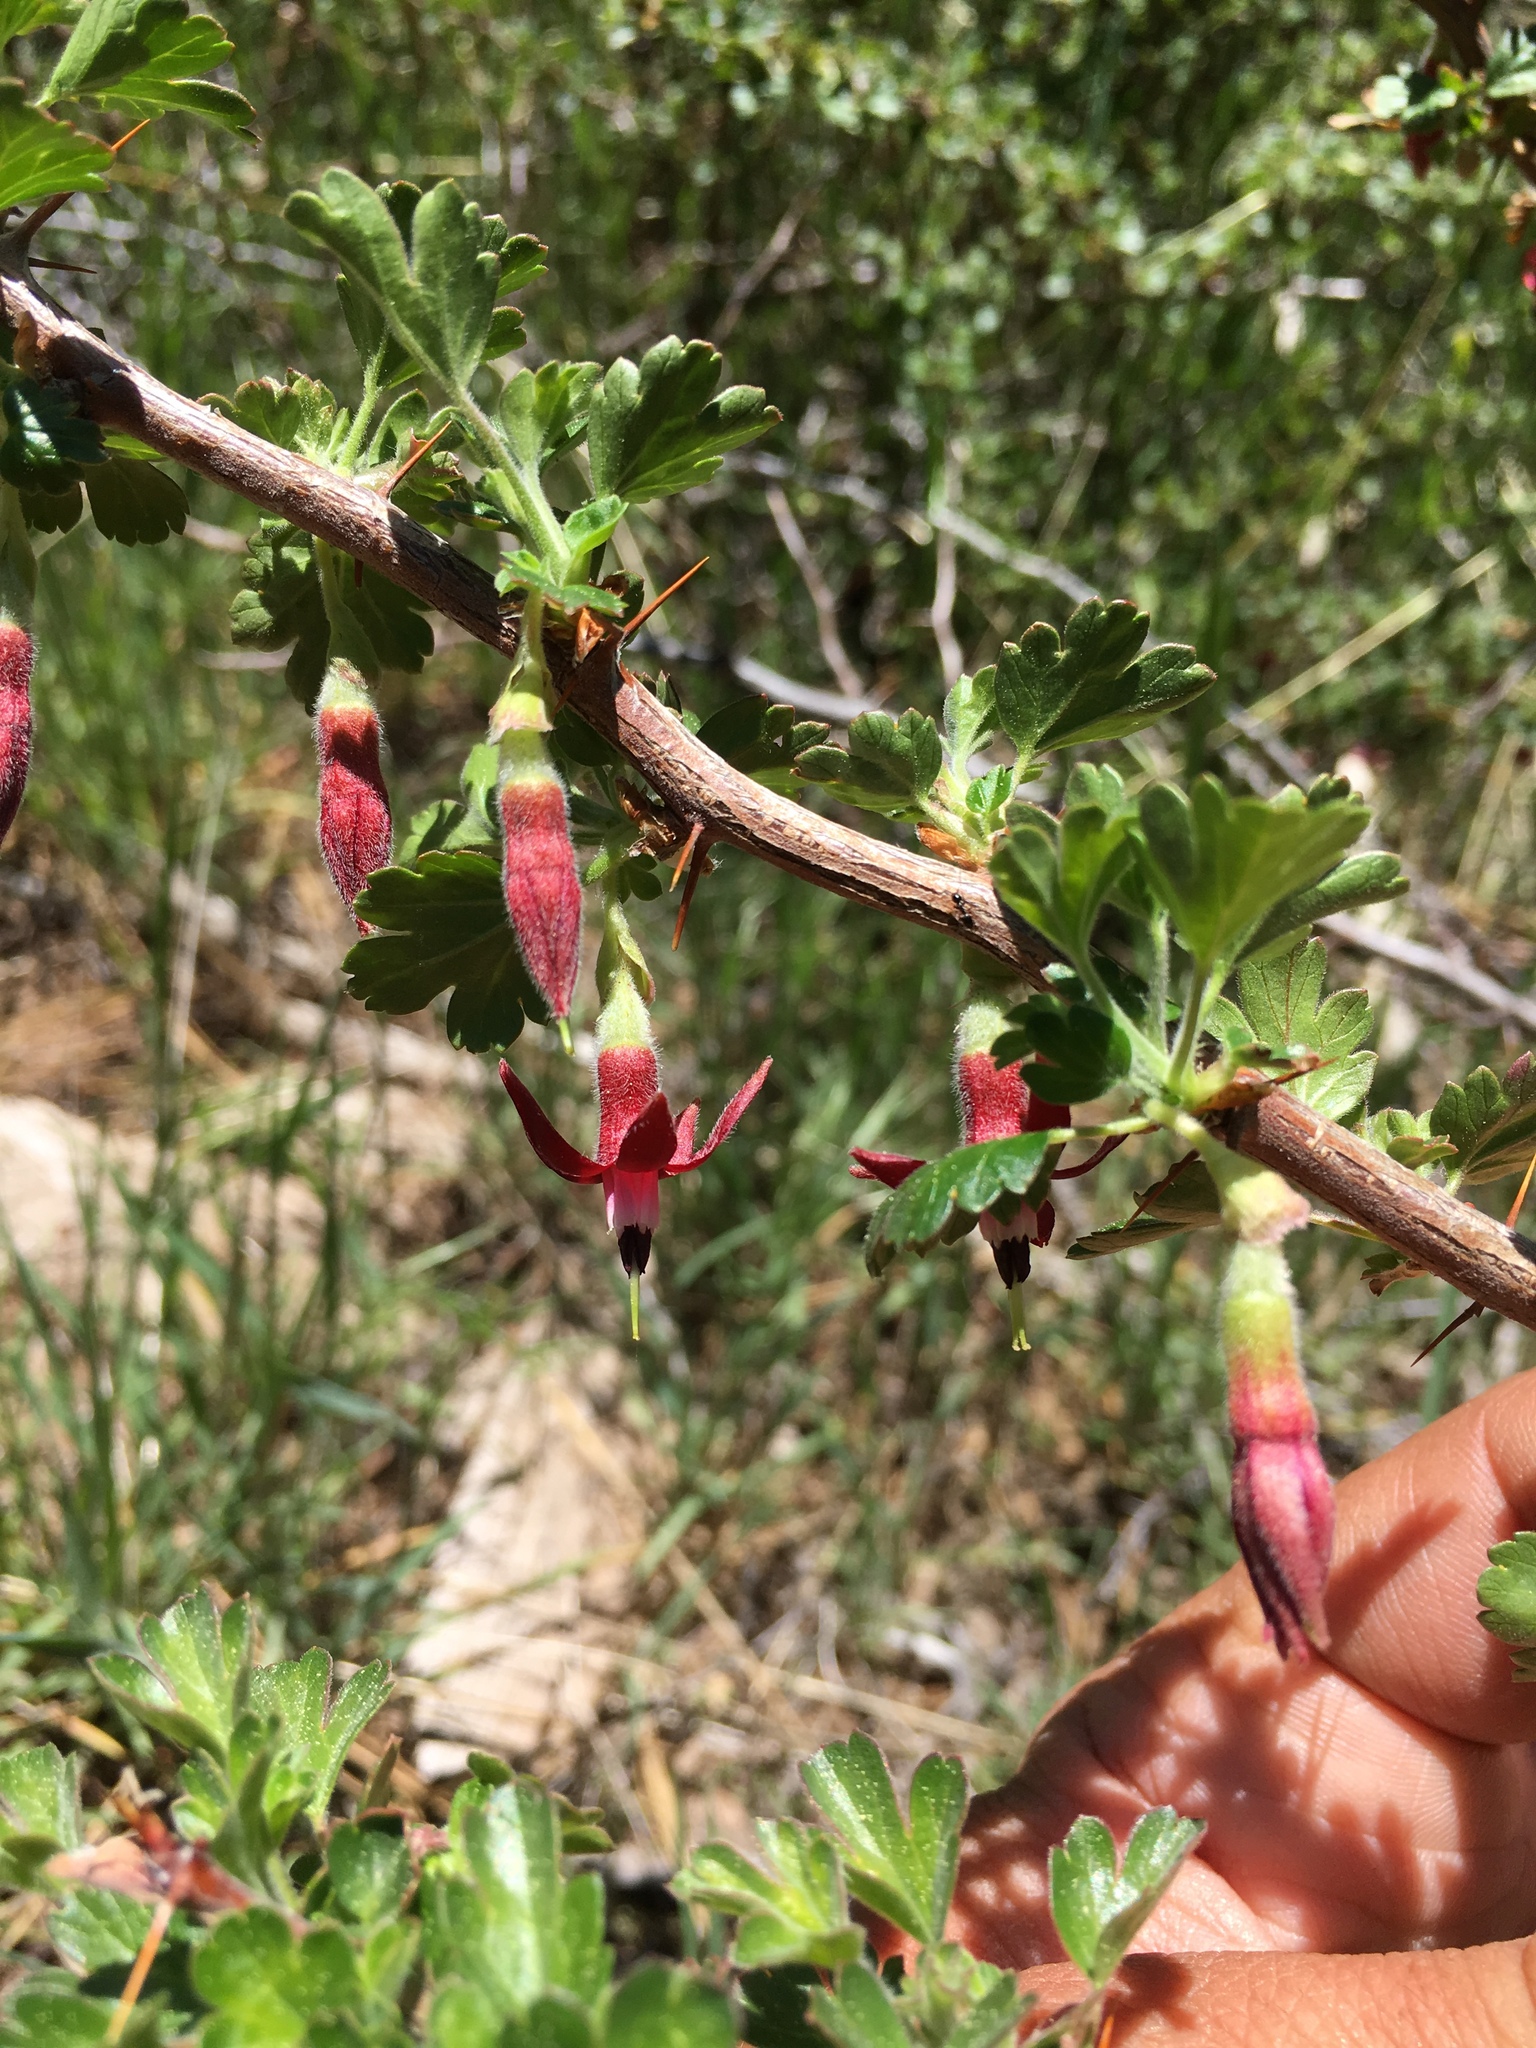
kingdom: Plantae
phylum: Tracheophyta
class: Magnoliopsida
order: Saxifragales
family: Grossulariaceae
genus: Ribes
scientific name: Ribes roezlii
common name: Sierra gooseberry
